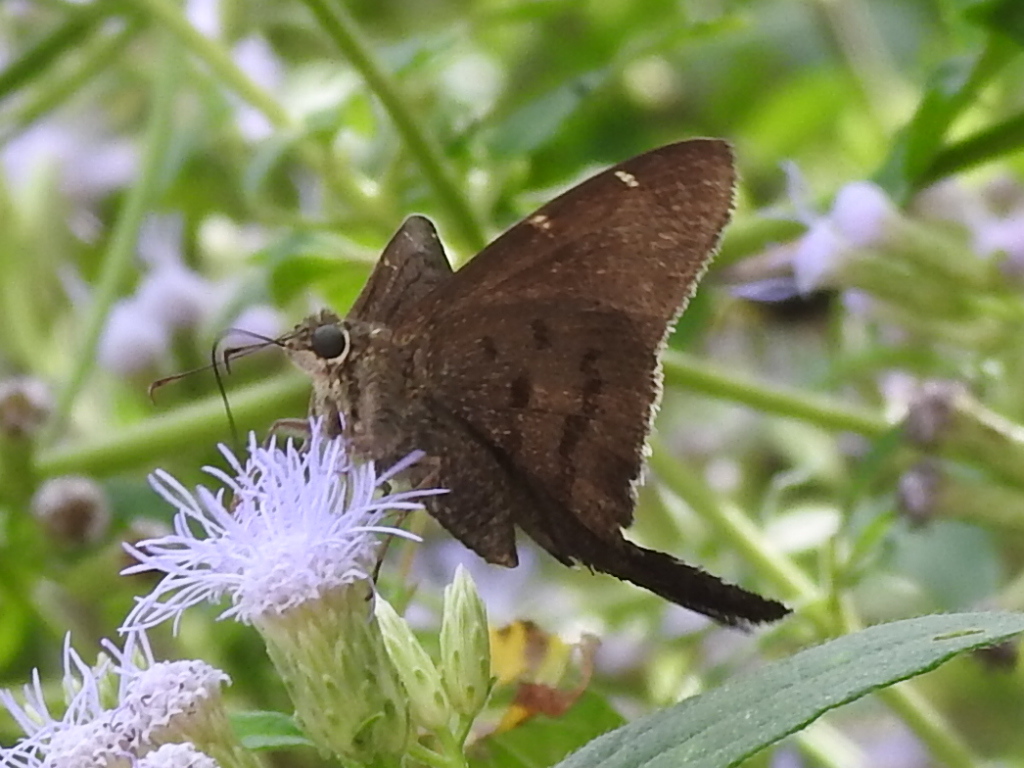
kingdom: Animalia
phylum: Arthropoda
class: Insecta
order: Lepidoptera
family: Hesperiidae
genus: Urbanus
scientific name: Urbanus procne
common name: Brown longtail
